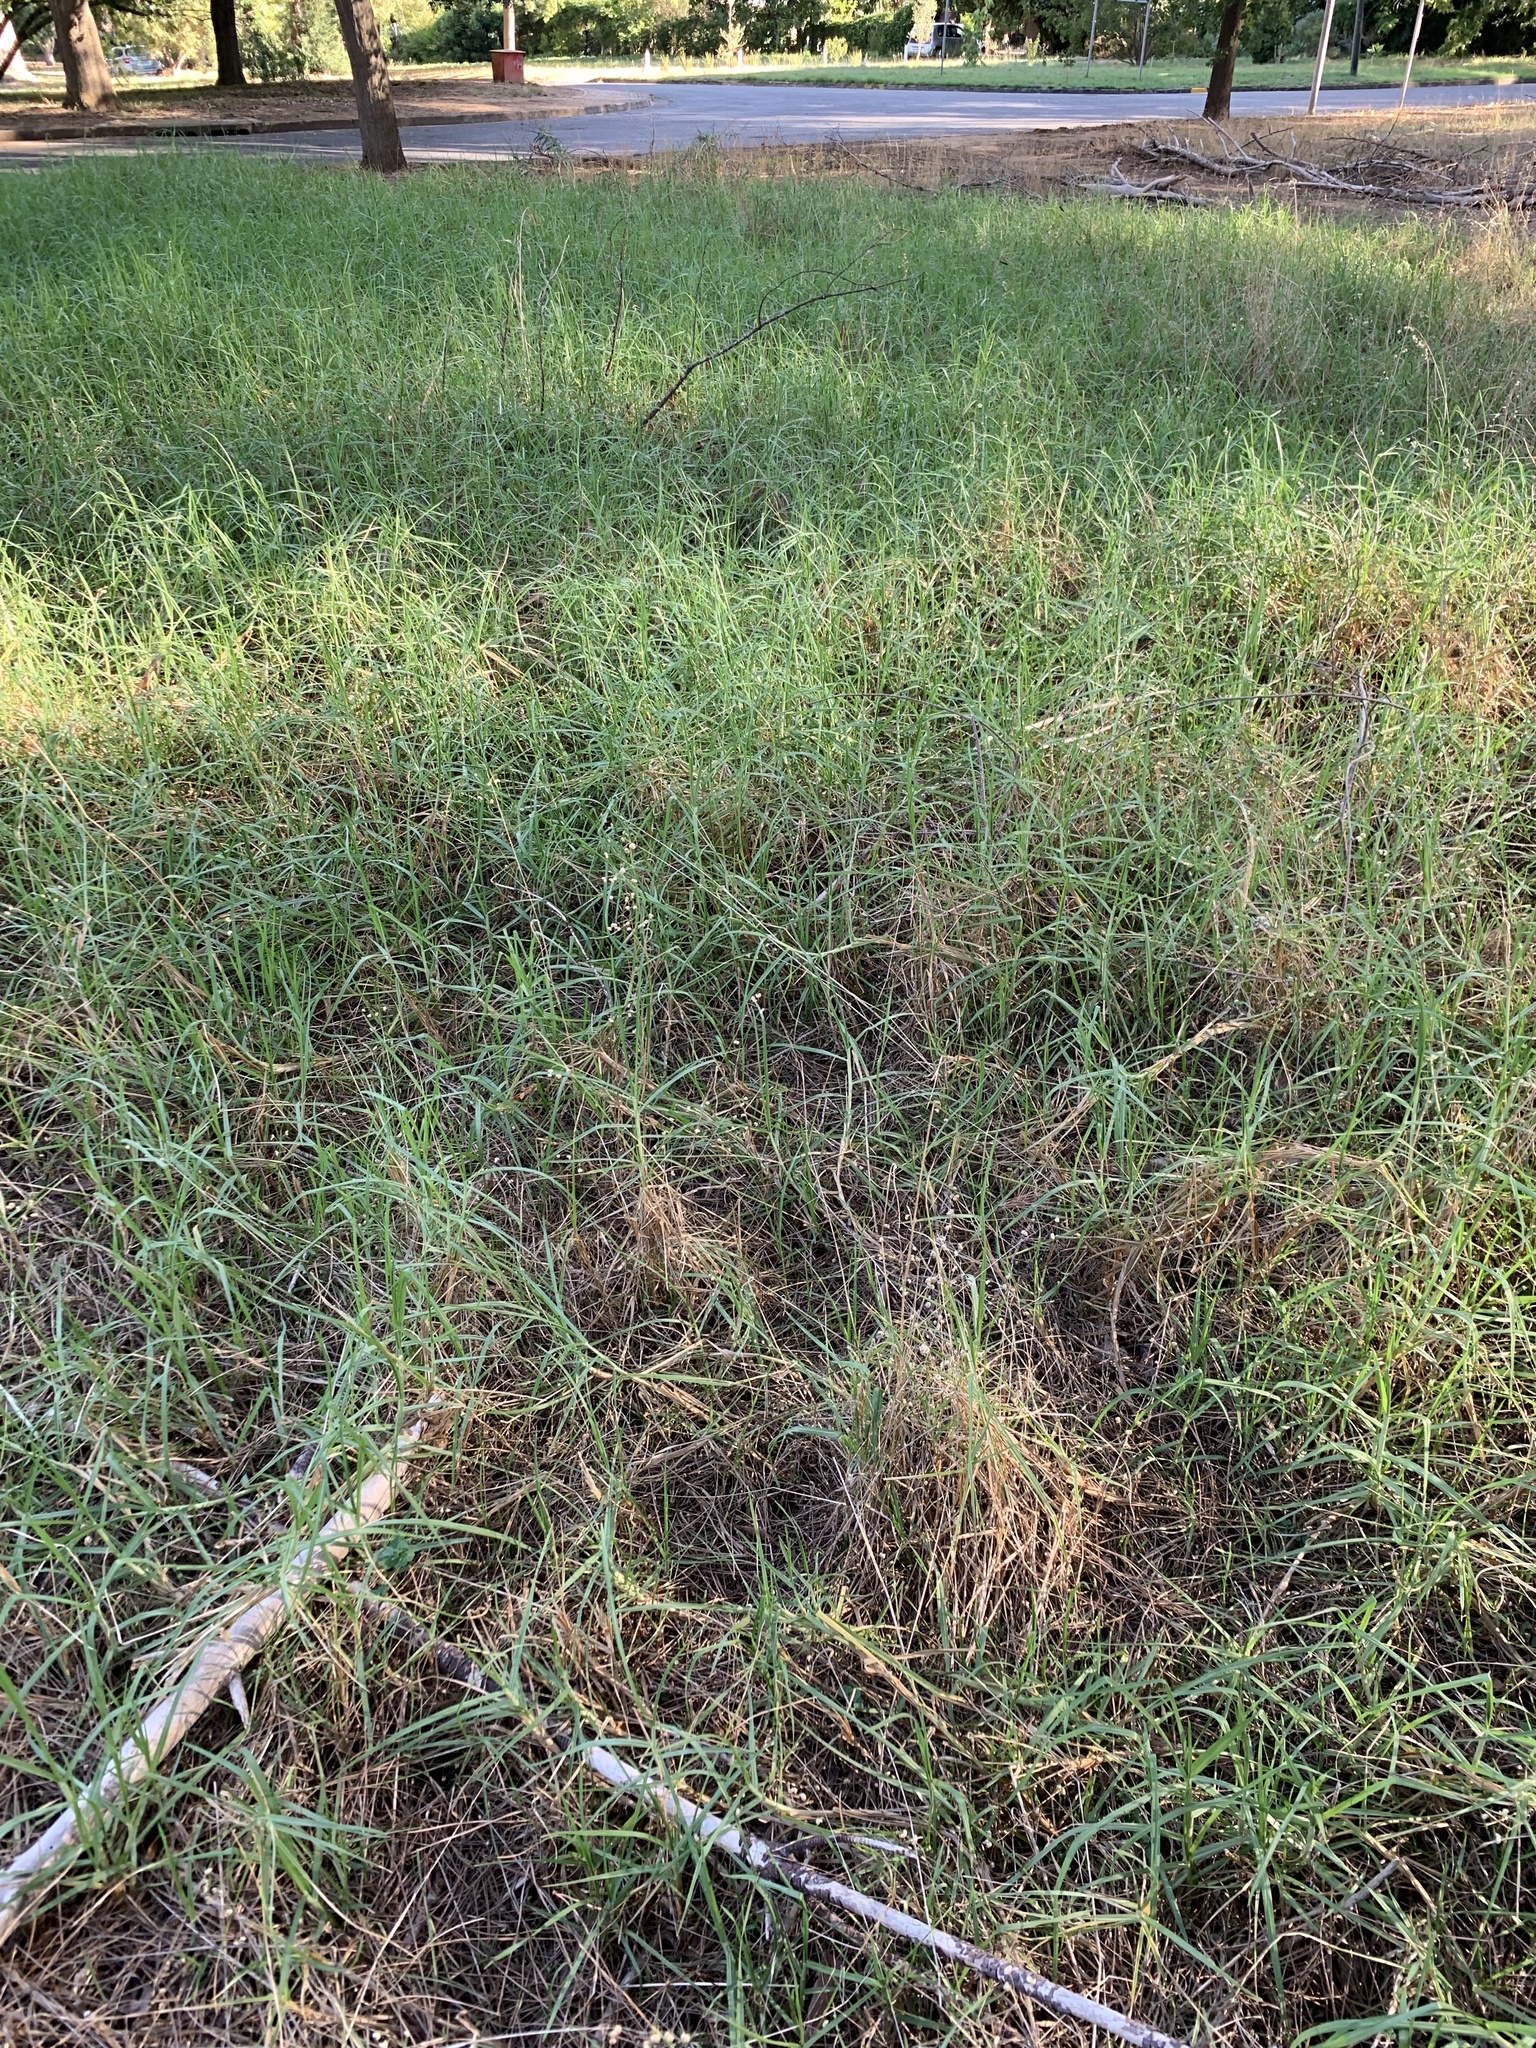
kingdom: Plantae
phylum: Tracheophyta
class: Liliopsida
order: Poales
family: Poaceae
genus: Cenchrus
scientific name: Cenchrus clandestinus
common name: Kikuyugrass
